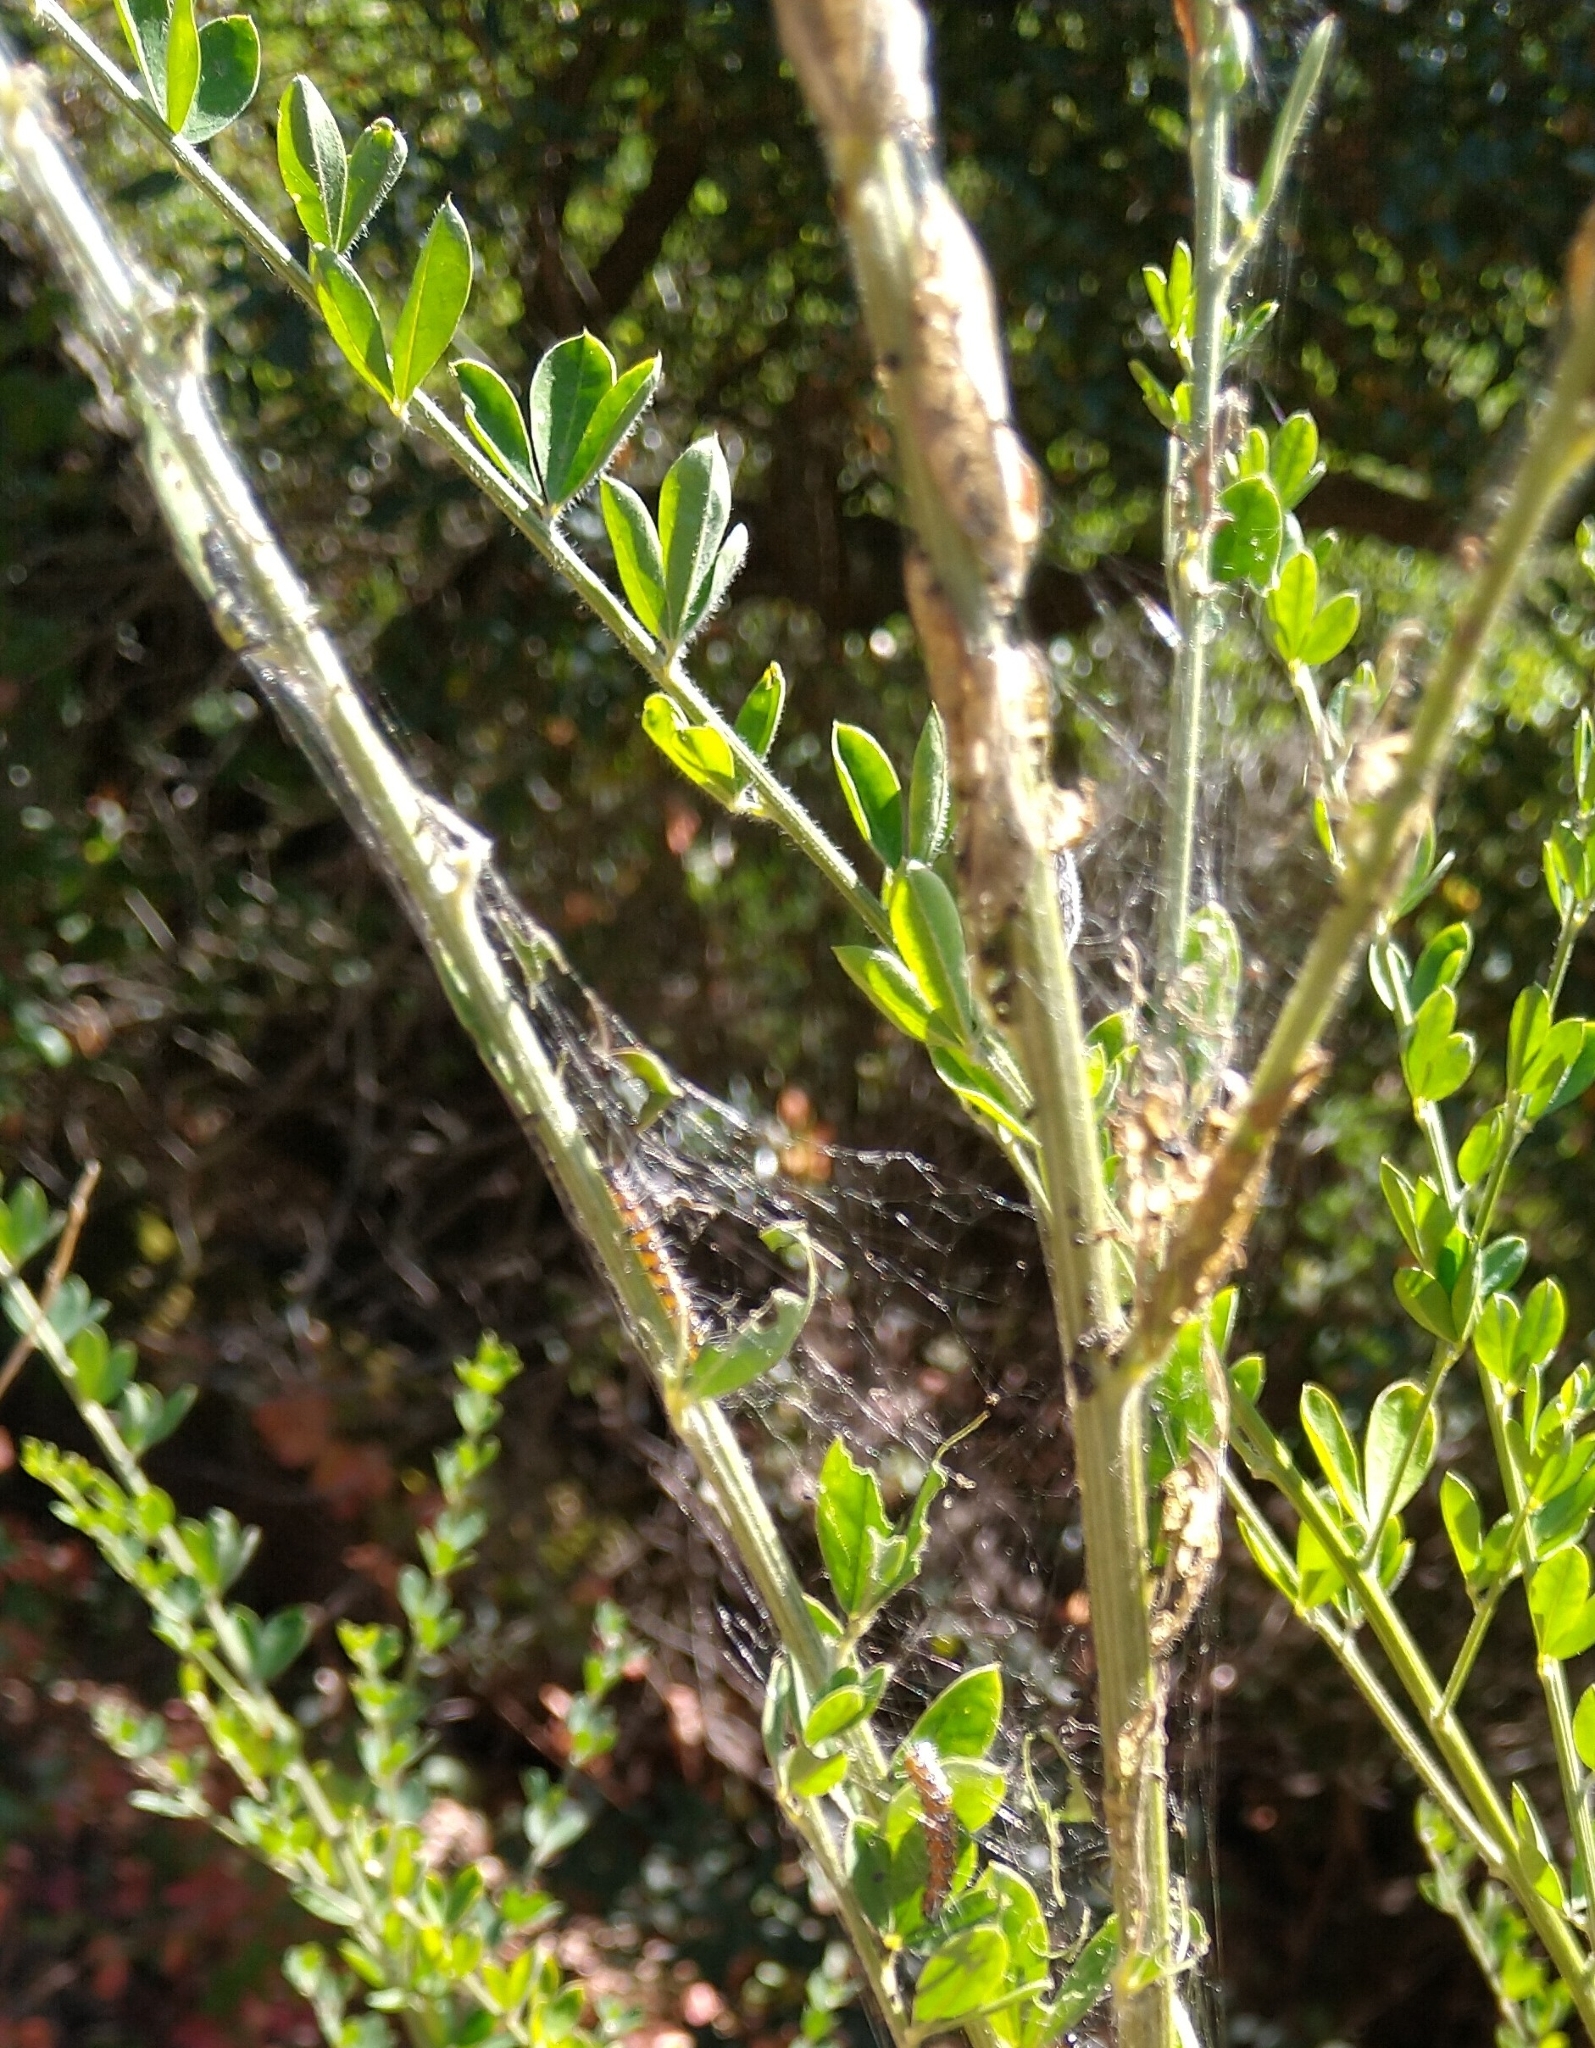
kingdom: Animalia
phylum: Arthropoda
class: Insecta
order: Lepidoptera
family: Crambidae
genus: Uresiphita
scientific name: Uresiphita reversalis
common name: Genista broom moth
